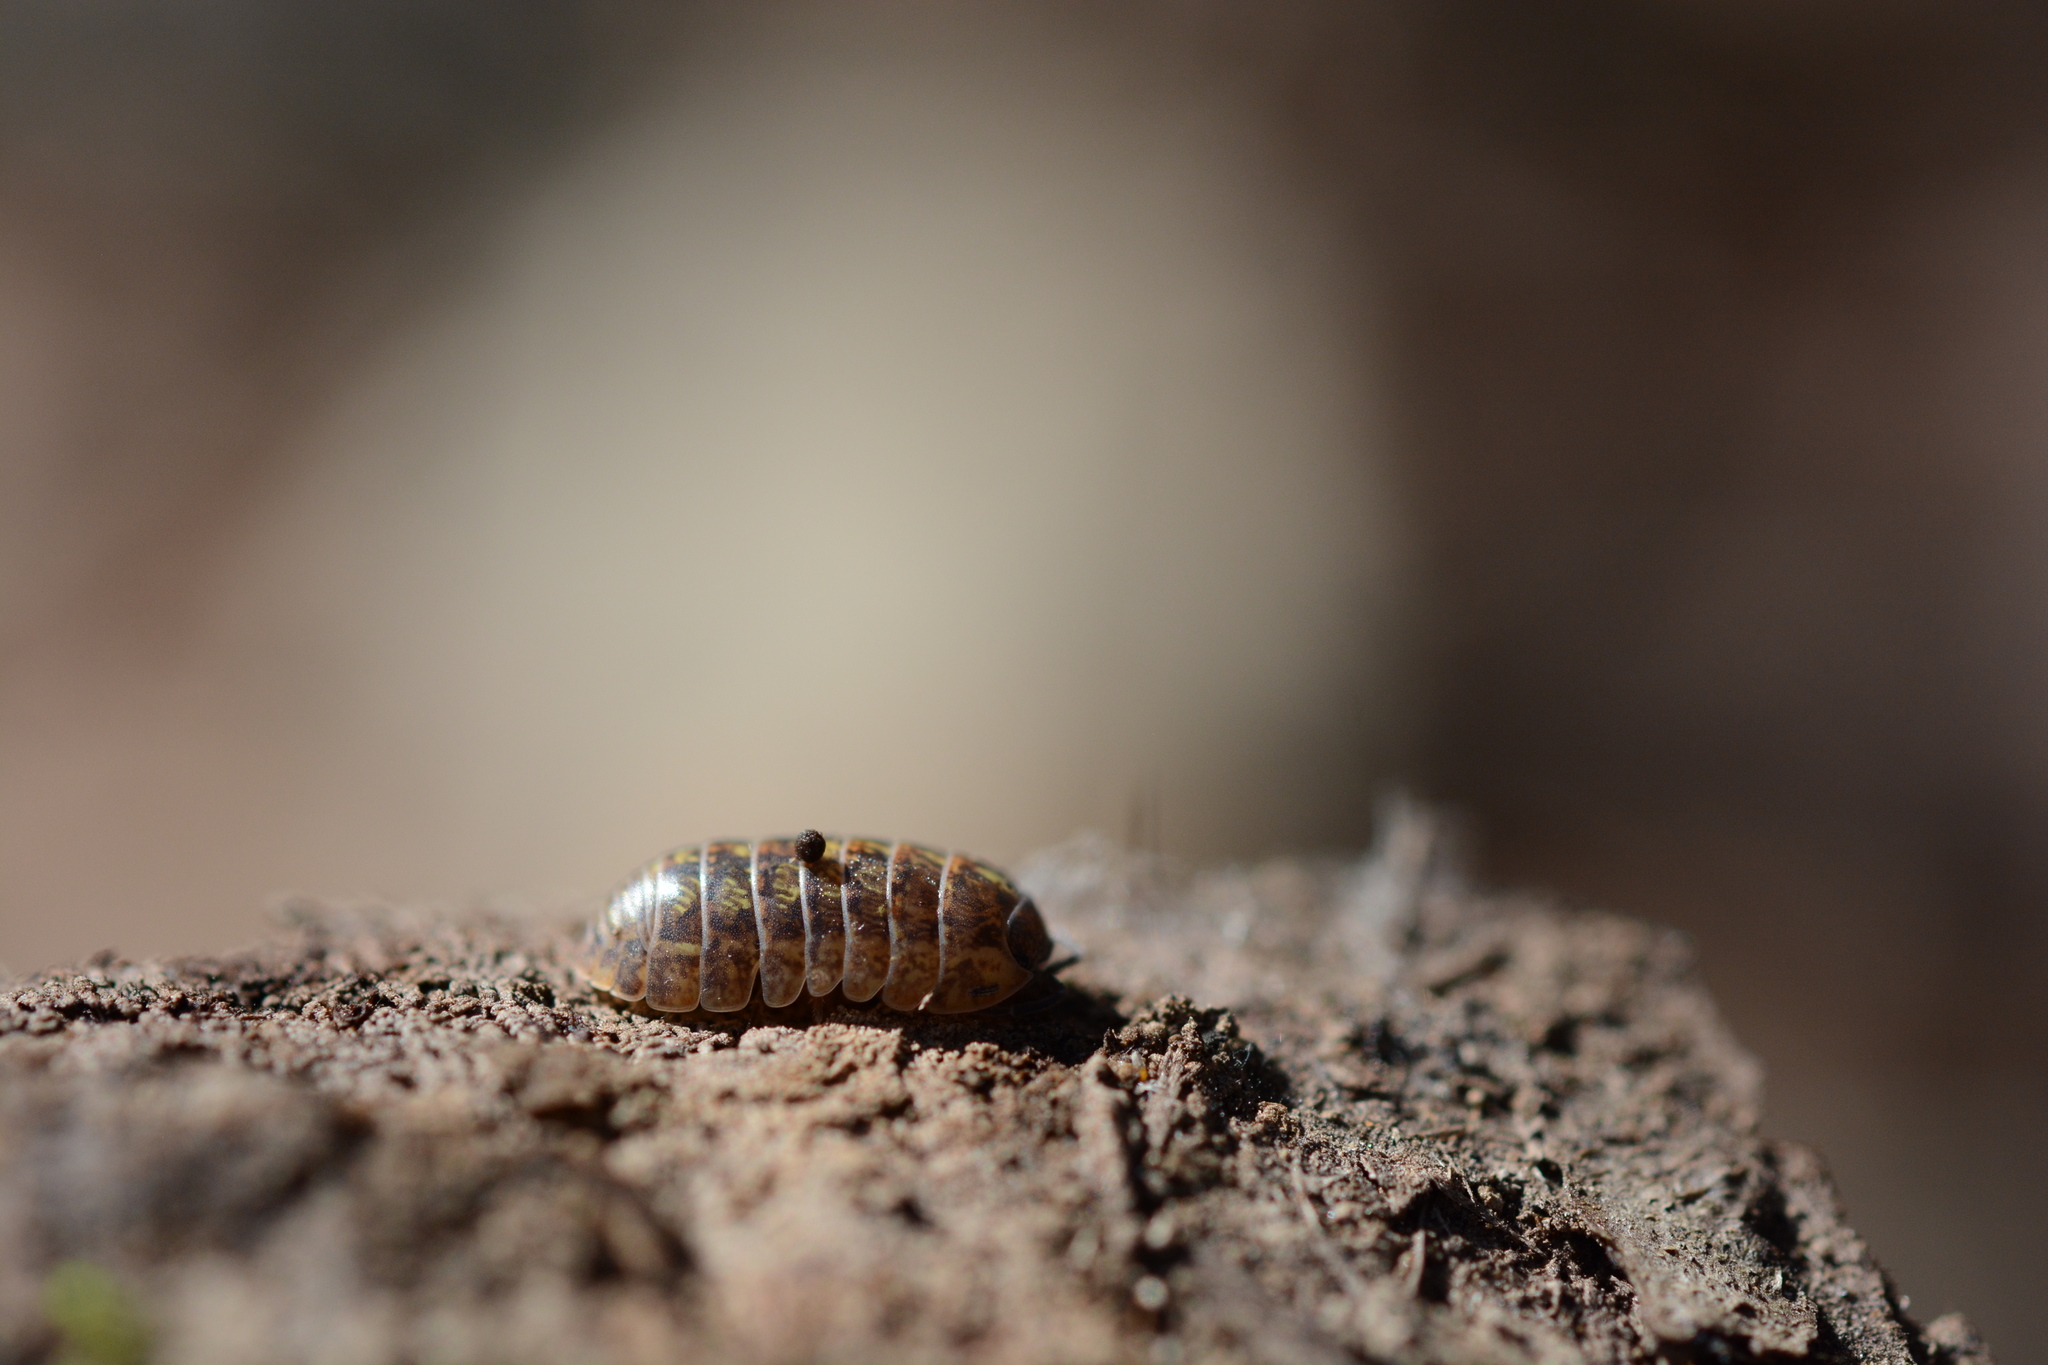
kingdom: Animalia
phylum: Arthropoda
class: Malacostraca
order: Isopoda
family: Armadillidiidae
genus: Armadillidium
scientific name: Armadillidium vulgare
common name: Common pill woodlouse
